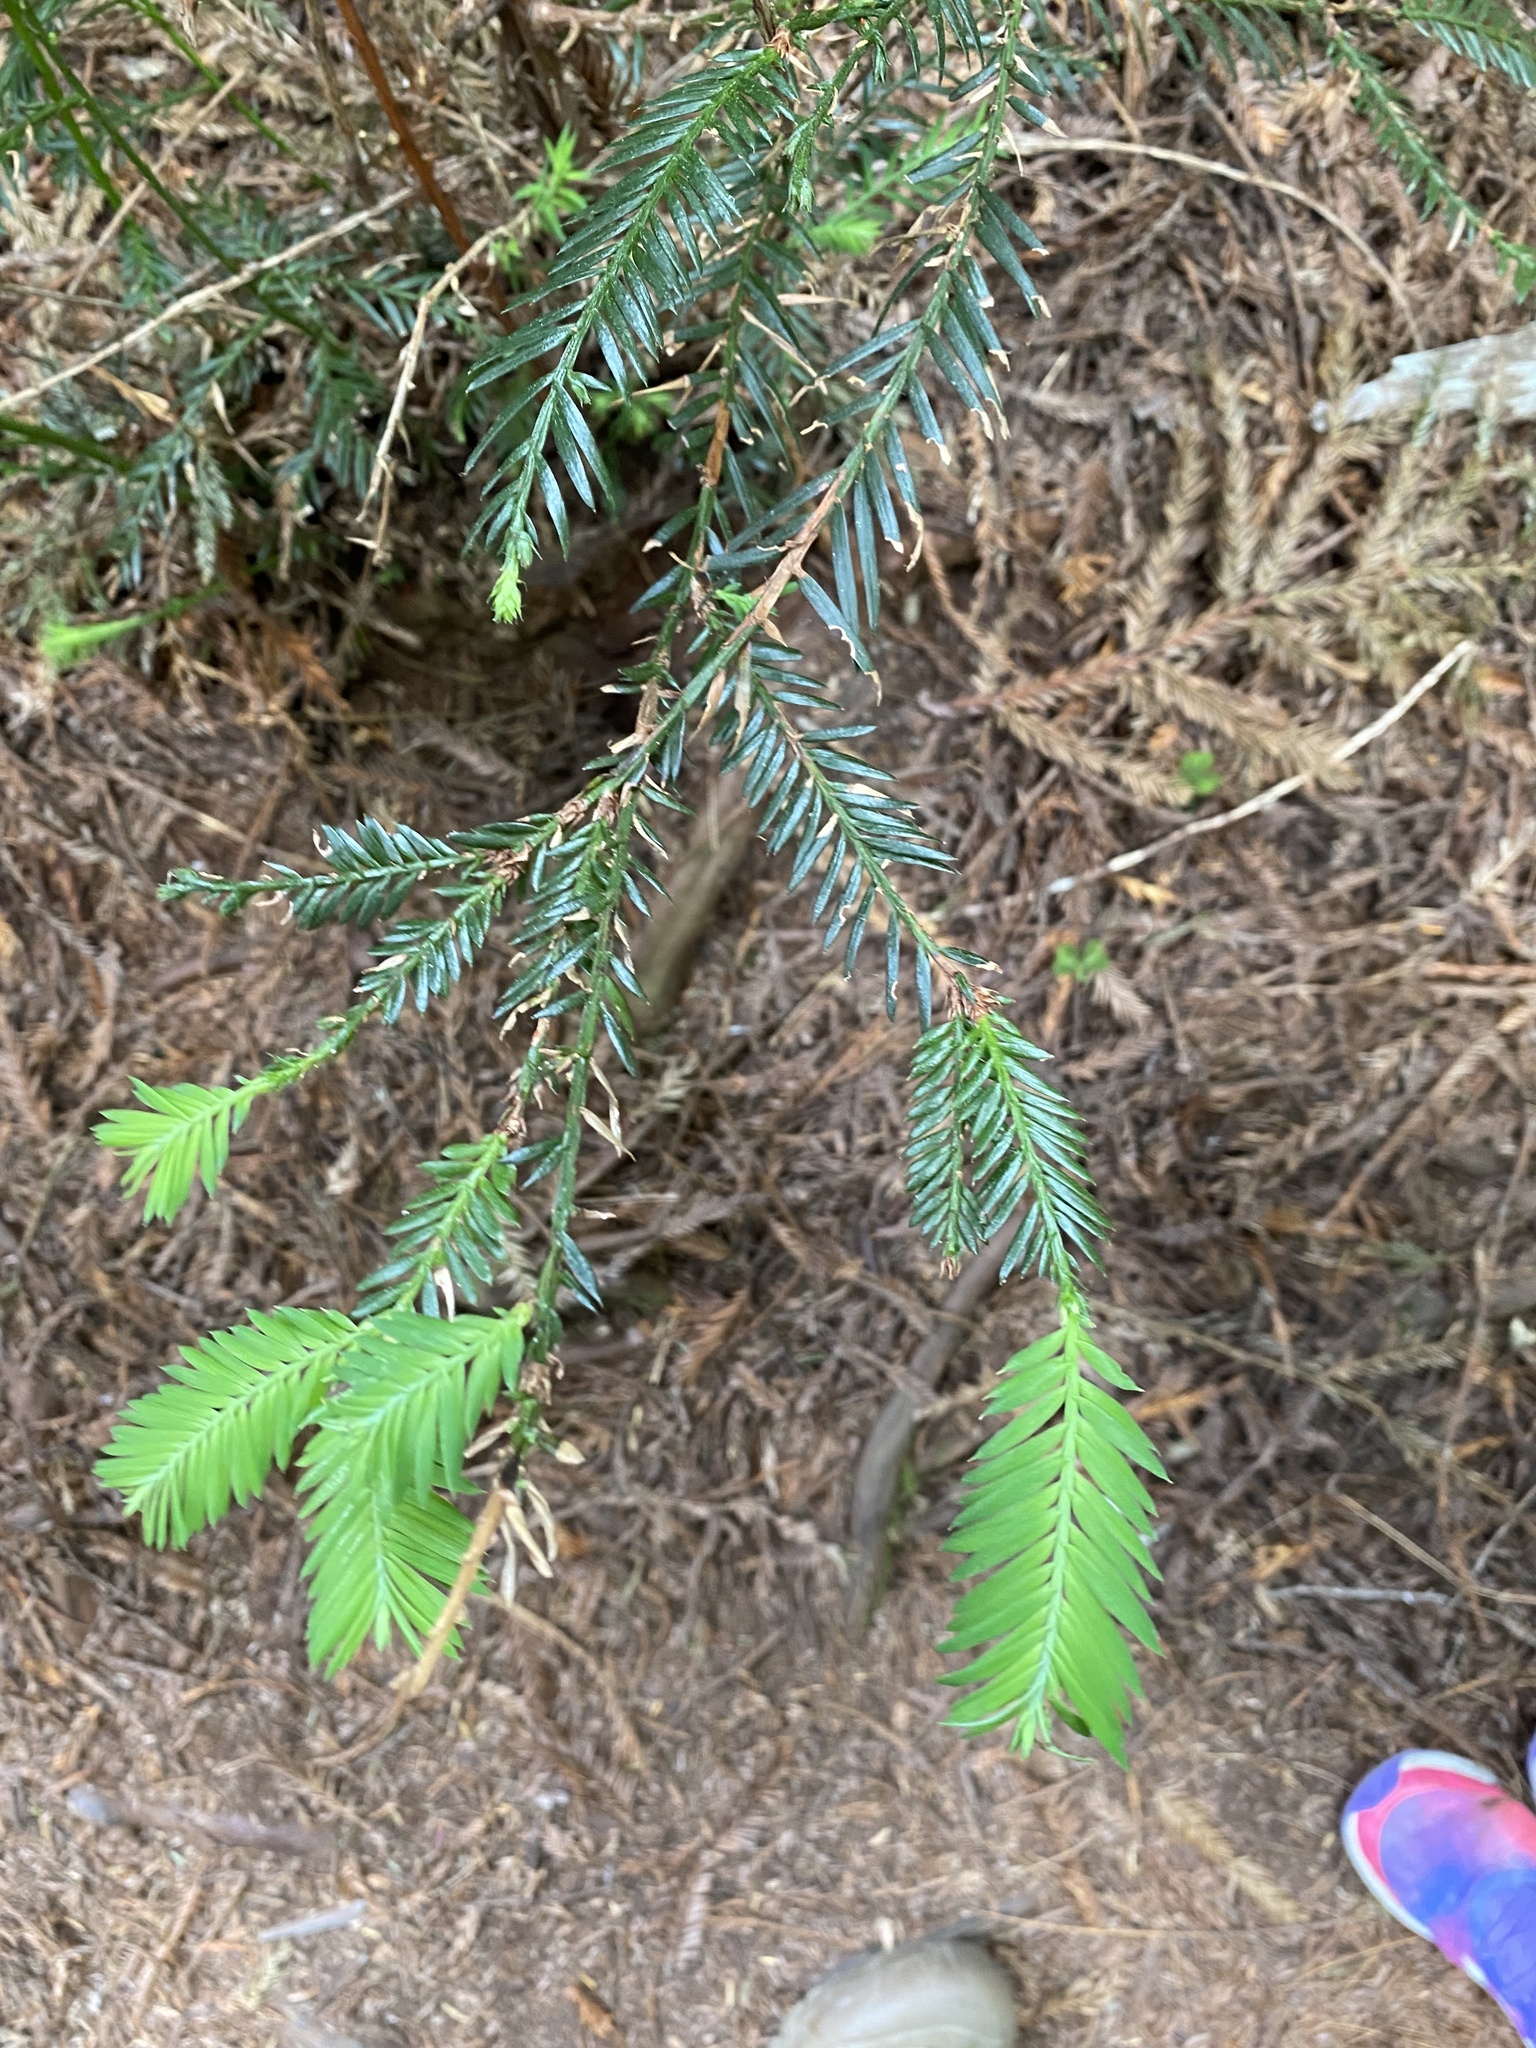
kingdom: Plantae
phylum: Tracheophyta
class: Pinopsida
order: Pinales
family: Cupressaceae
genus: Sequoia
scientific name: Sequoia sempervirens
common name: Coast redwood
